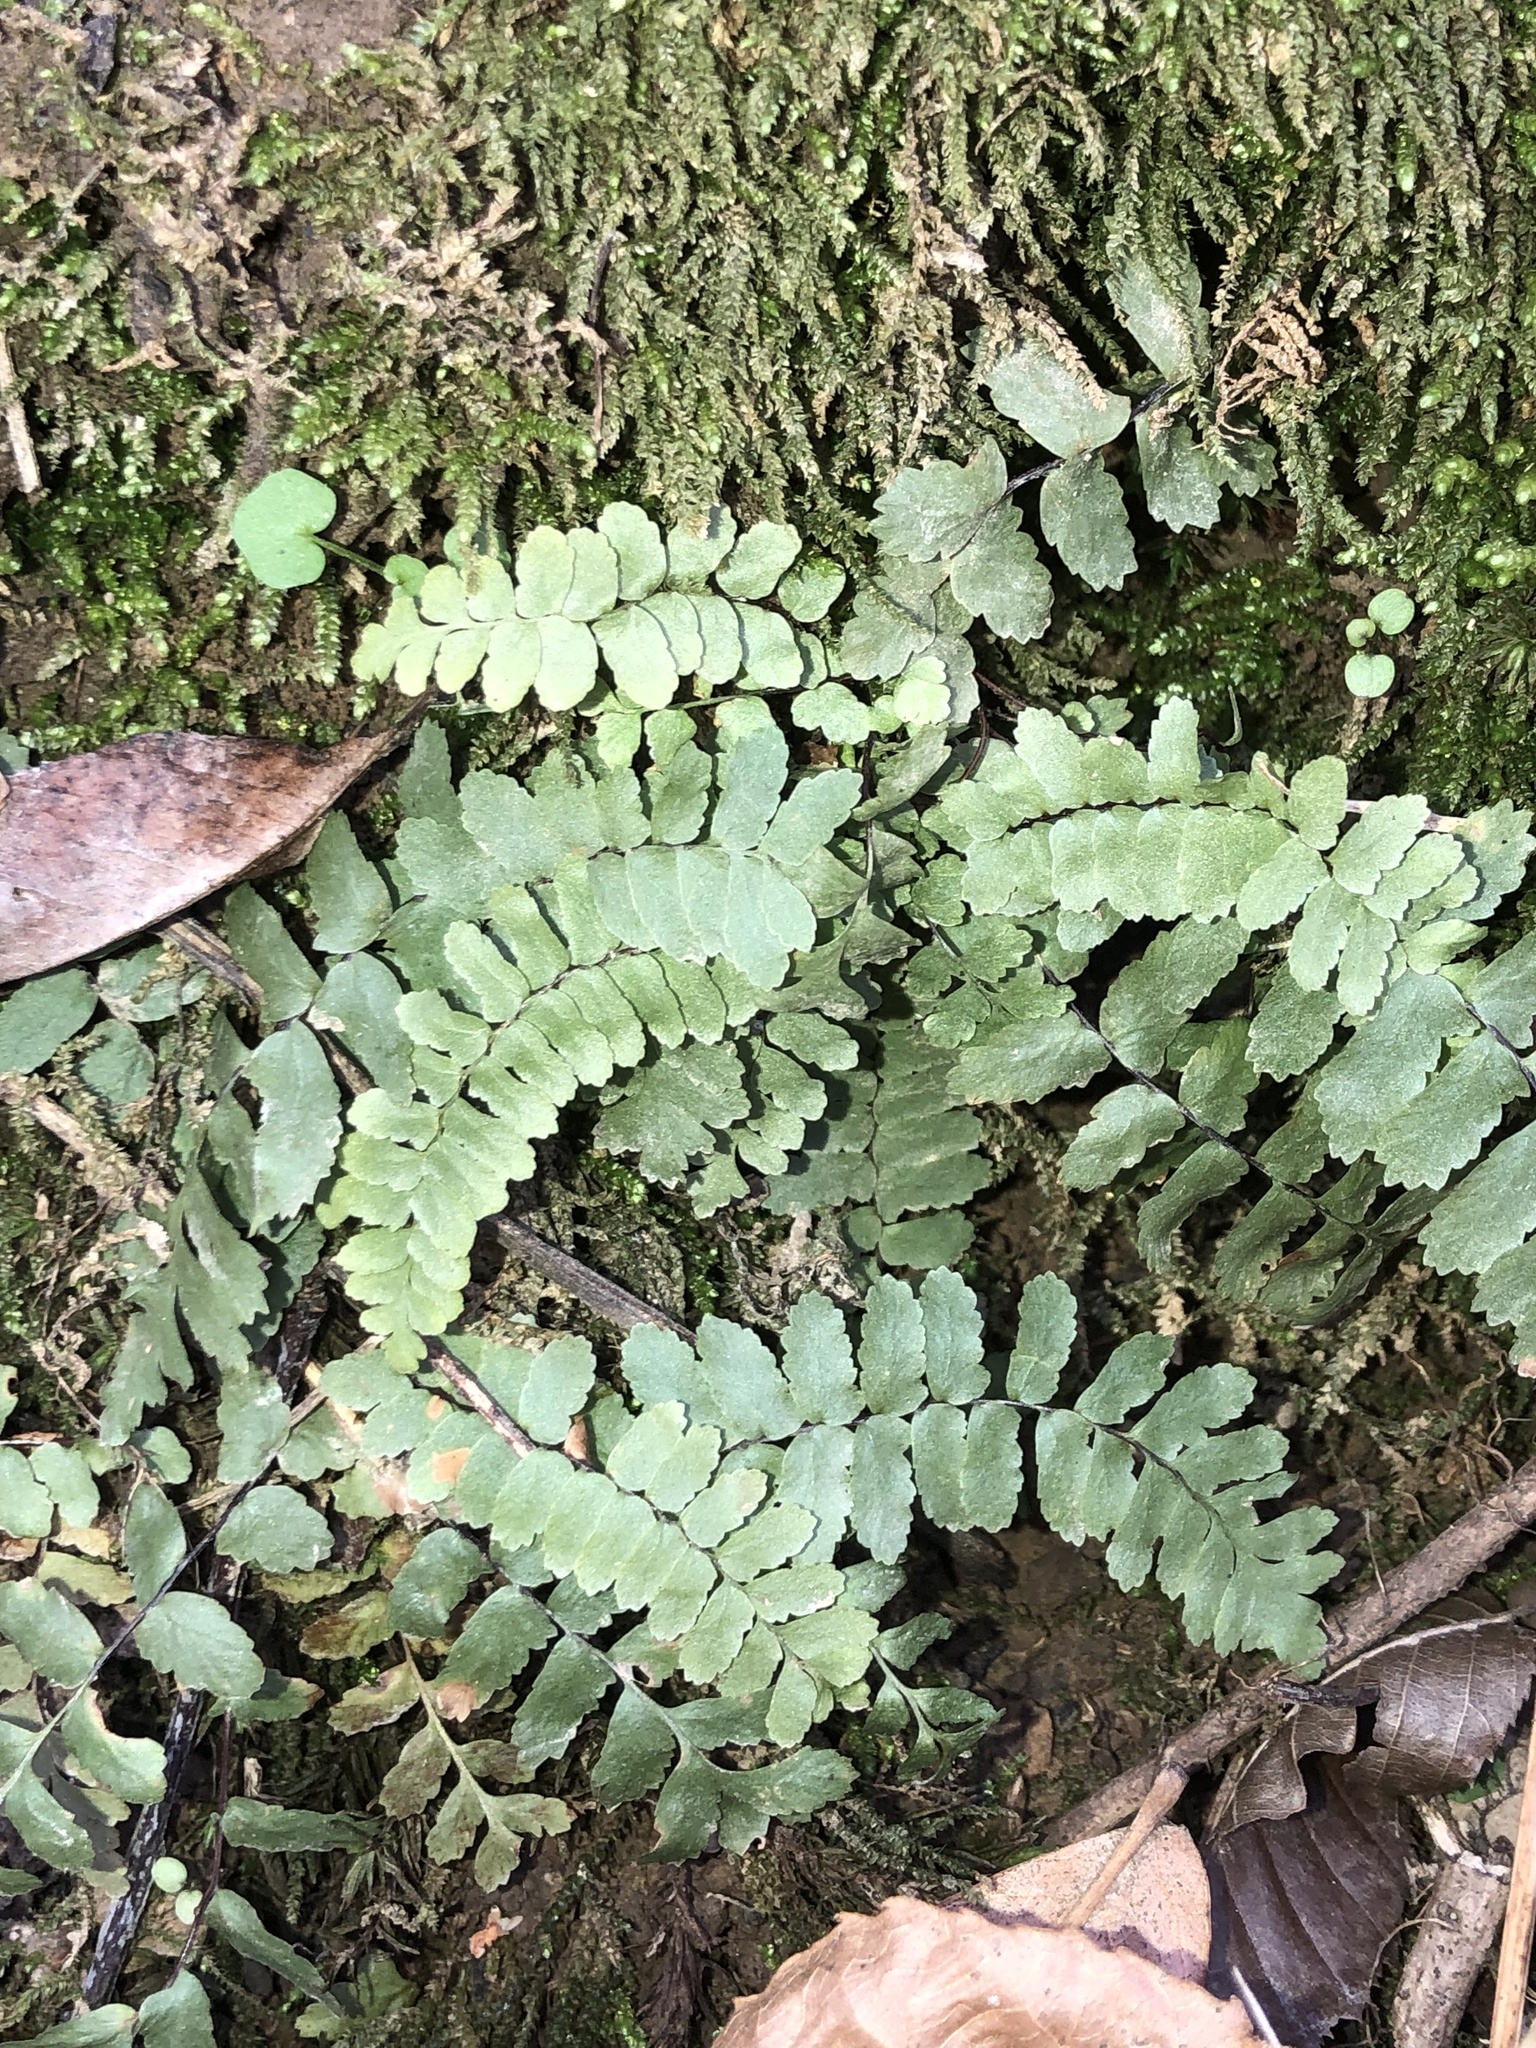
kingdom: Plantae
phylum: Tracheophyta
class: Polypodiopsida
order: Polypodiales
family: Aspleniaceae
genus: Asplenium
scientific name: Asplenium platyneuron
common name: Ebony spleenwort
